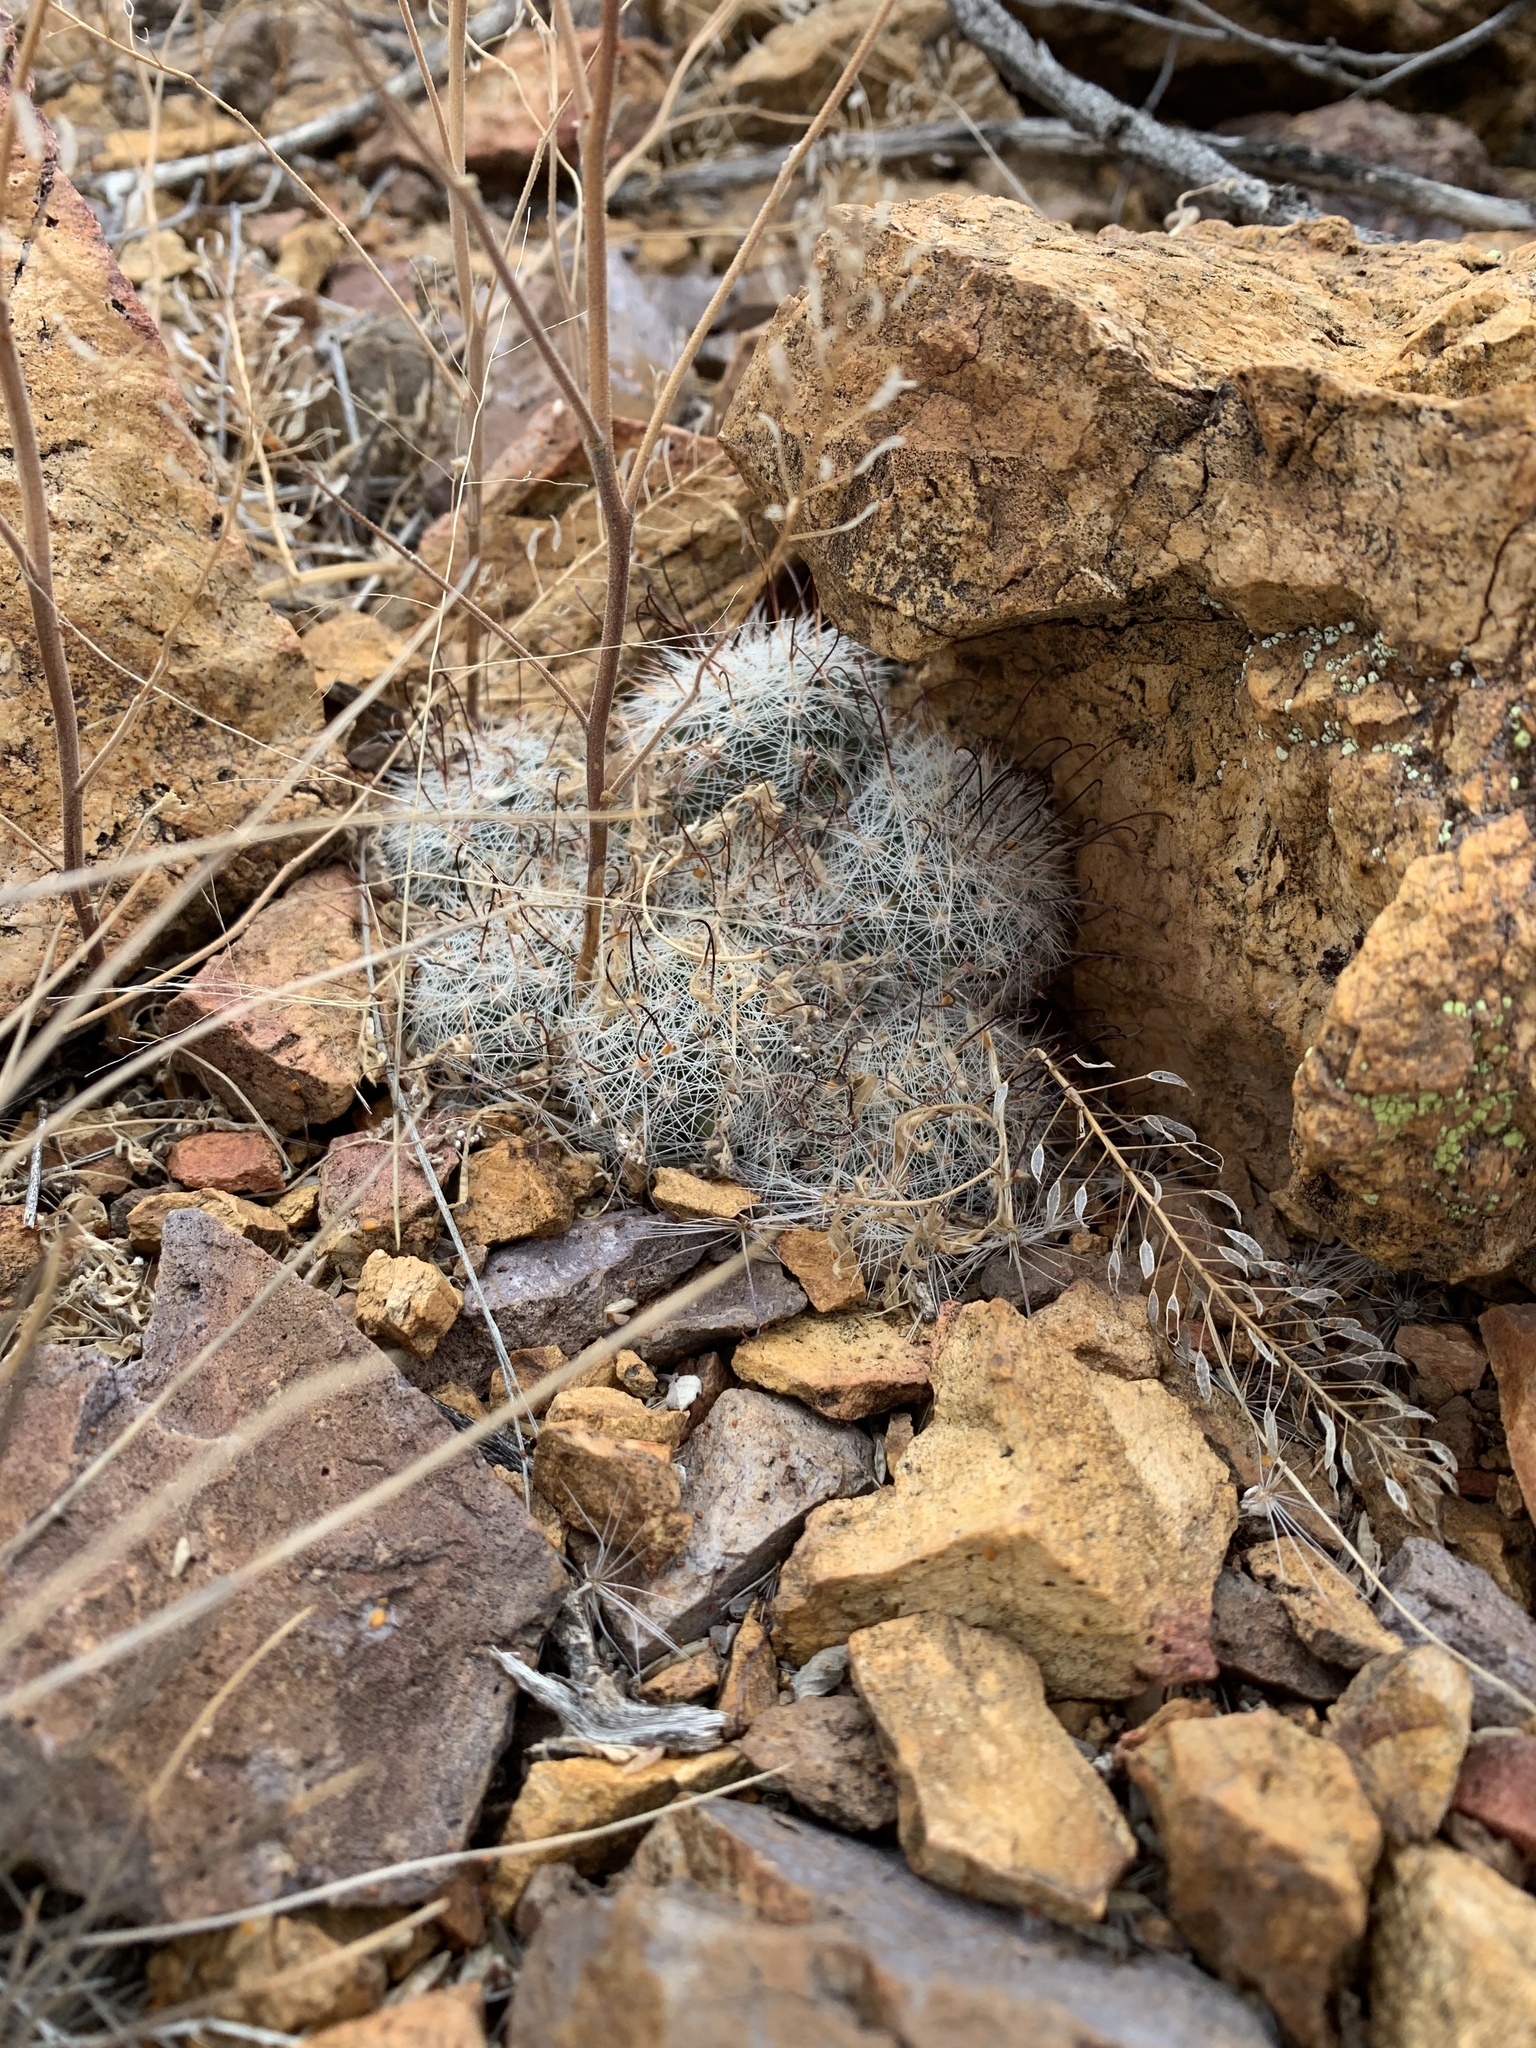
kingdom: Plantae
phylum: Tracheophyta
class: Magnoliopsida
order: Caryophyllales
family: Cactaceae
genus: Cochemiea
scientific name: Cochemiea grahamii
